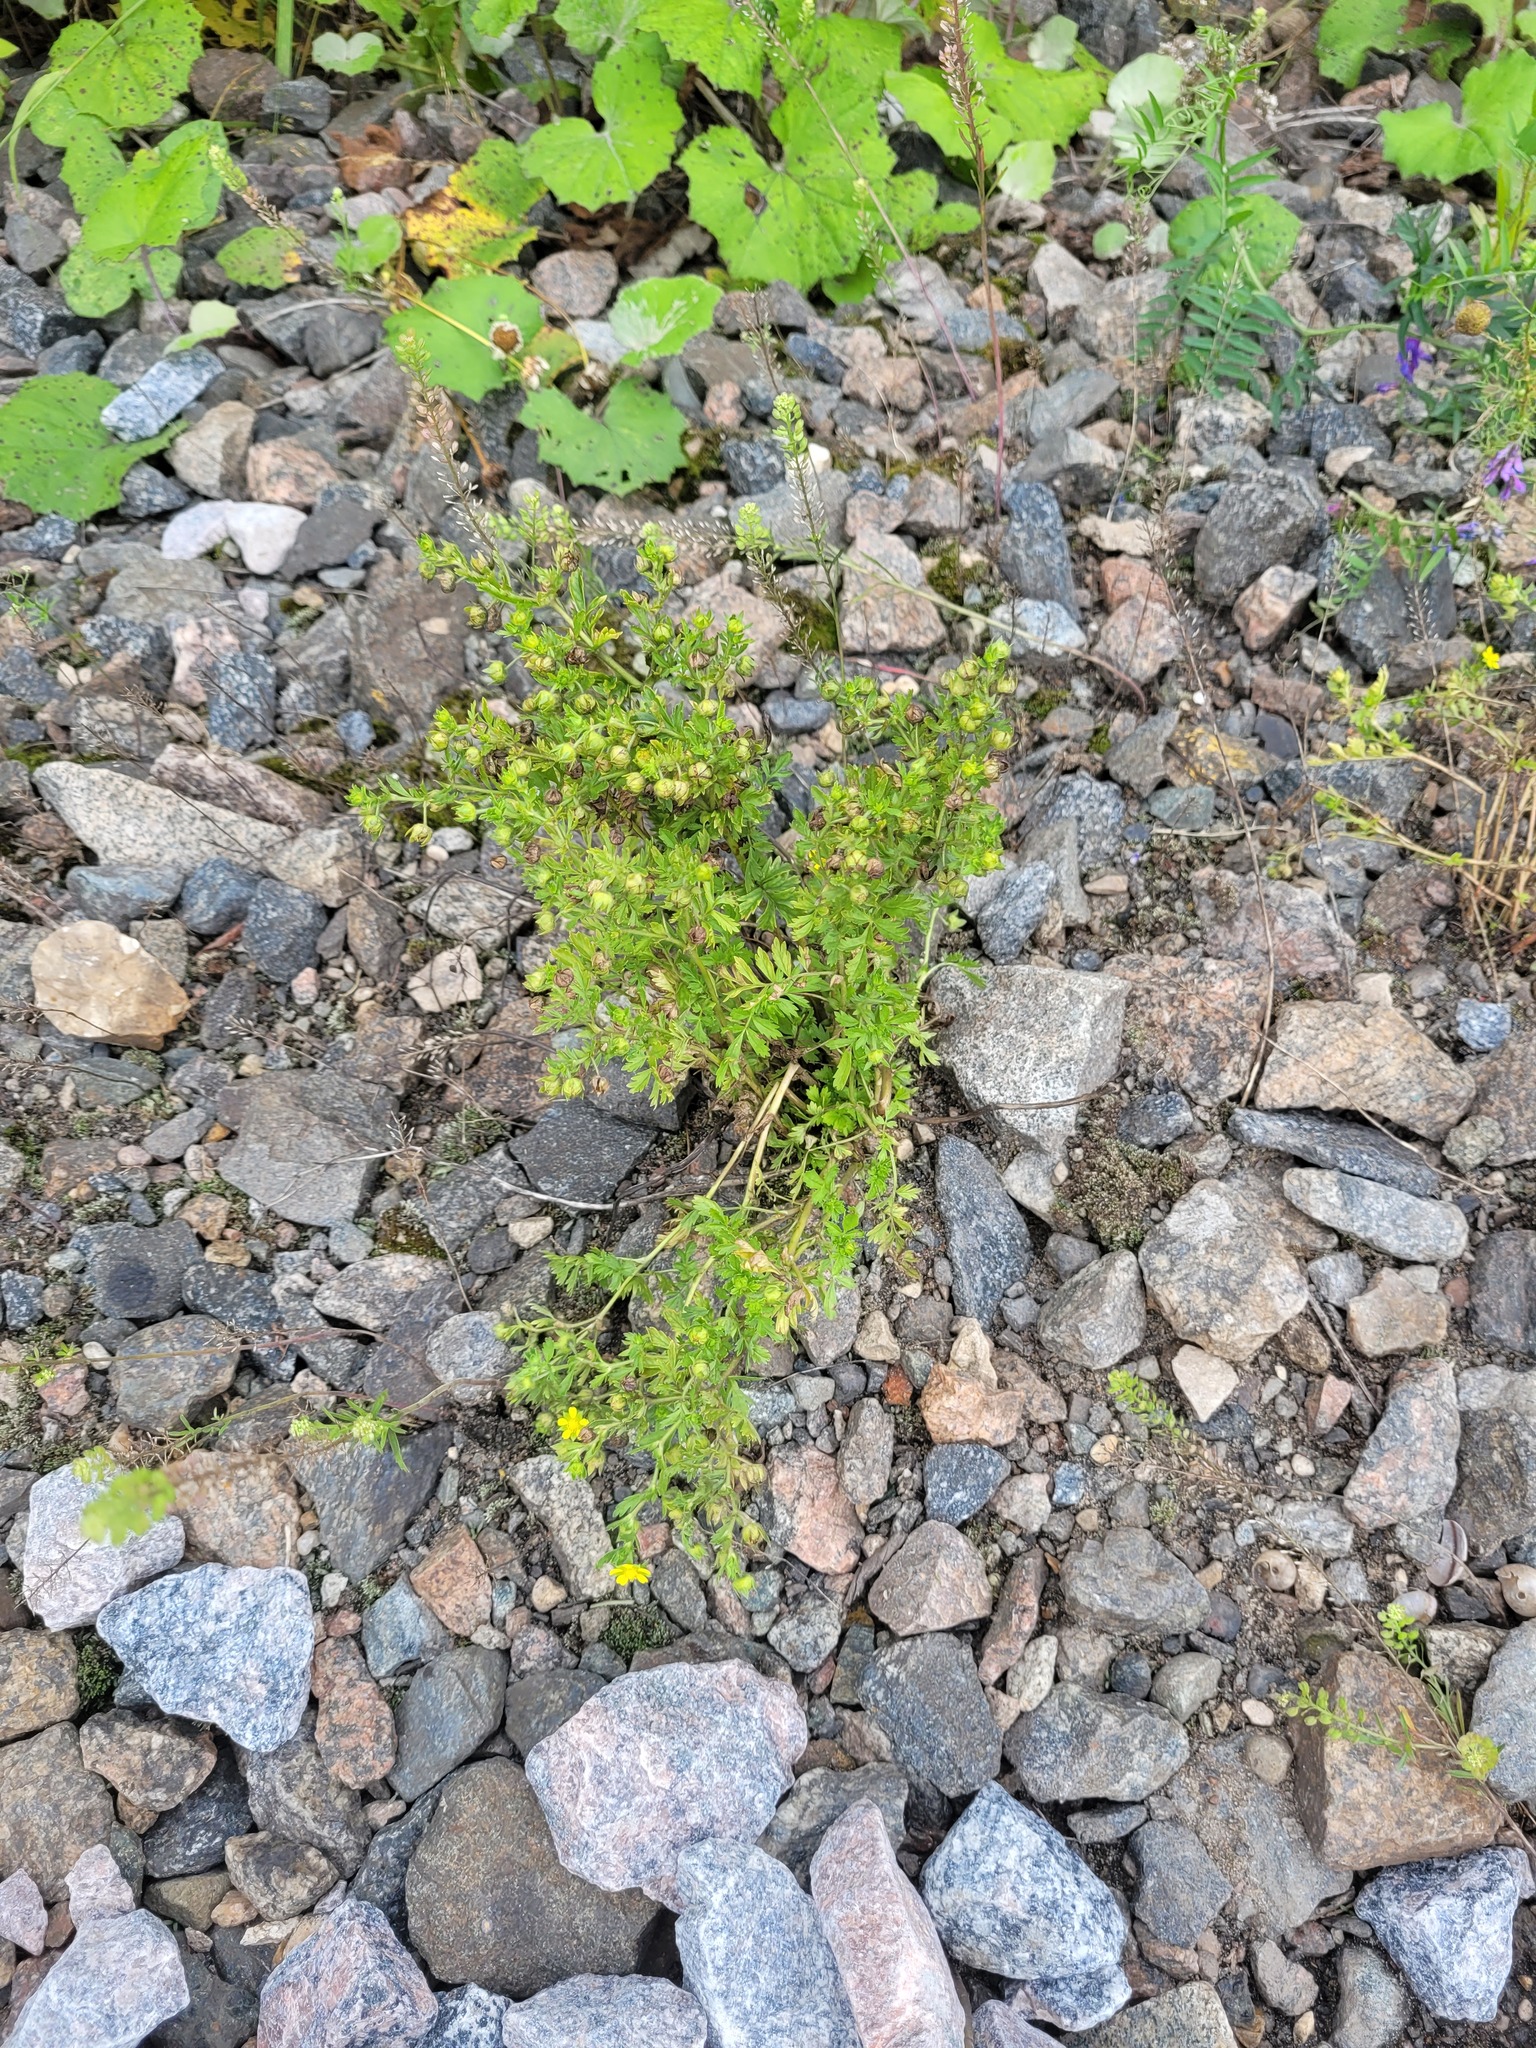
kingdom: Plantae
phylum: Tracheophyta
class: Magnoliopsida
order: Rosales
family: Rosaceae
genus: Potentilla
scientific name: Potentilla supina
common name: Prostrate cinquefoil
